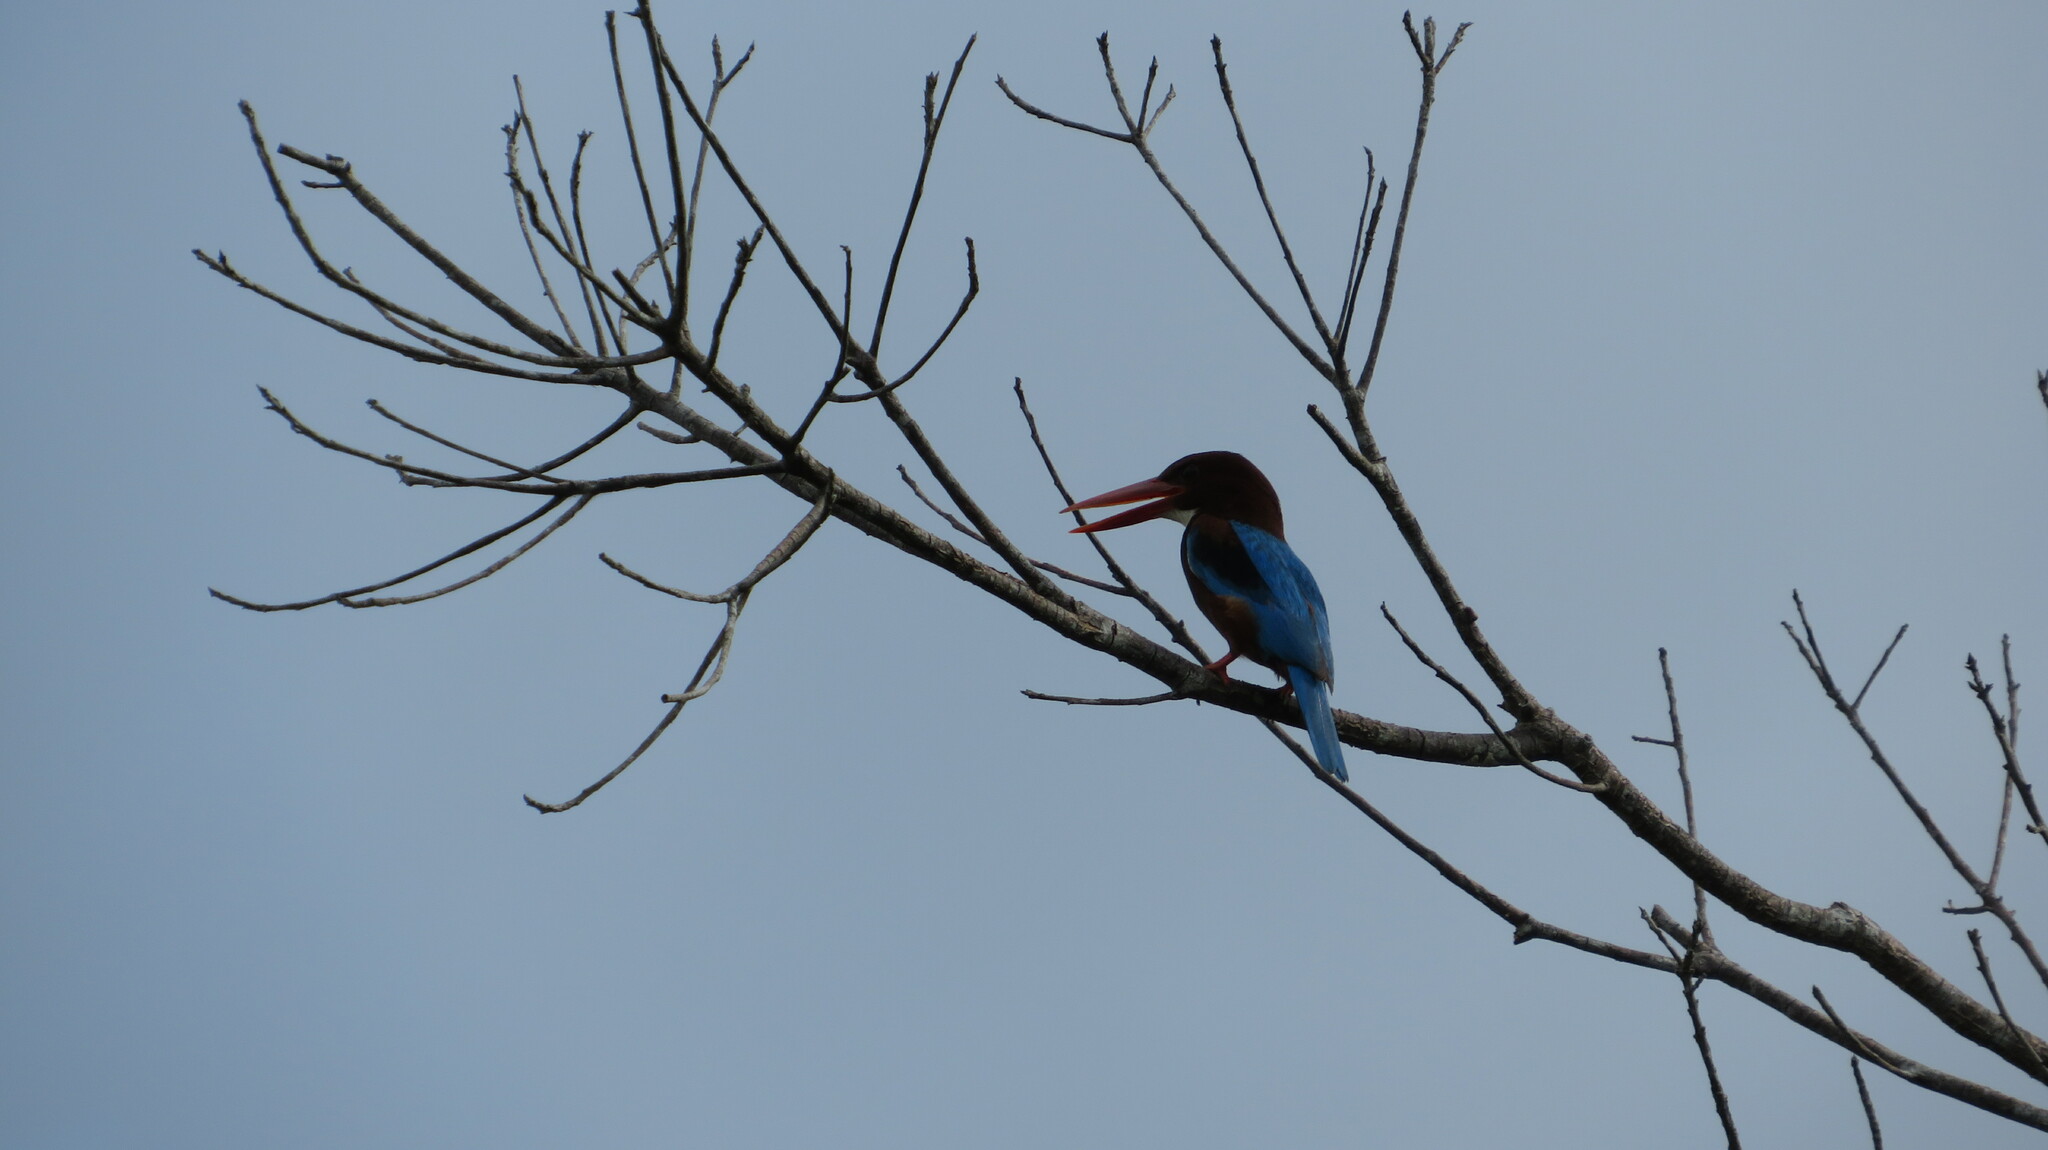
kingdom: Animalia
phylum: Chordata
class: Aves
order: Coraciiformes
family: Alcedinidae
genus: Halcyon
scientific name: Halcyon smyrnensis
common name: White-throated kingfisher
